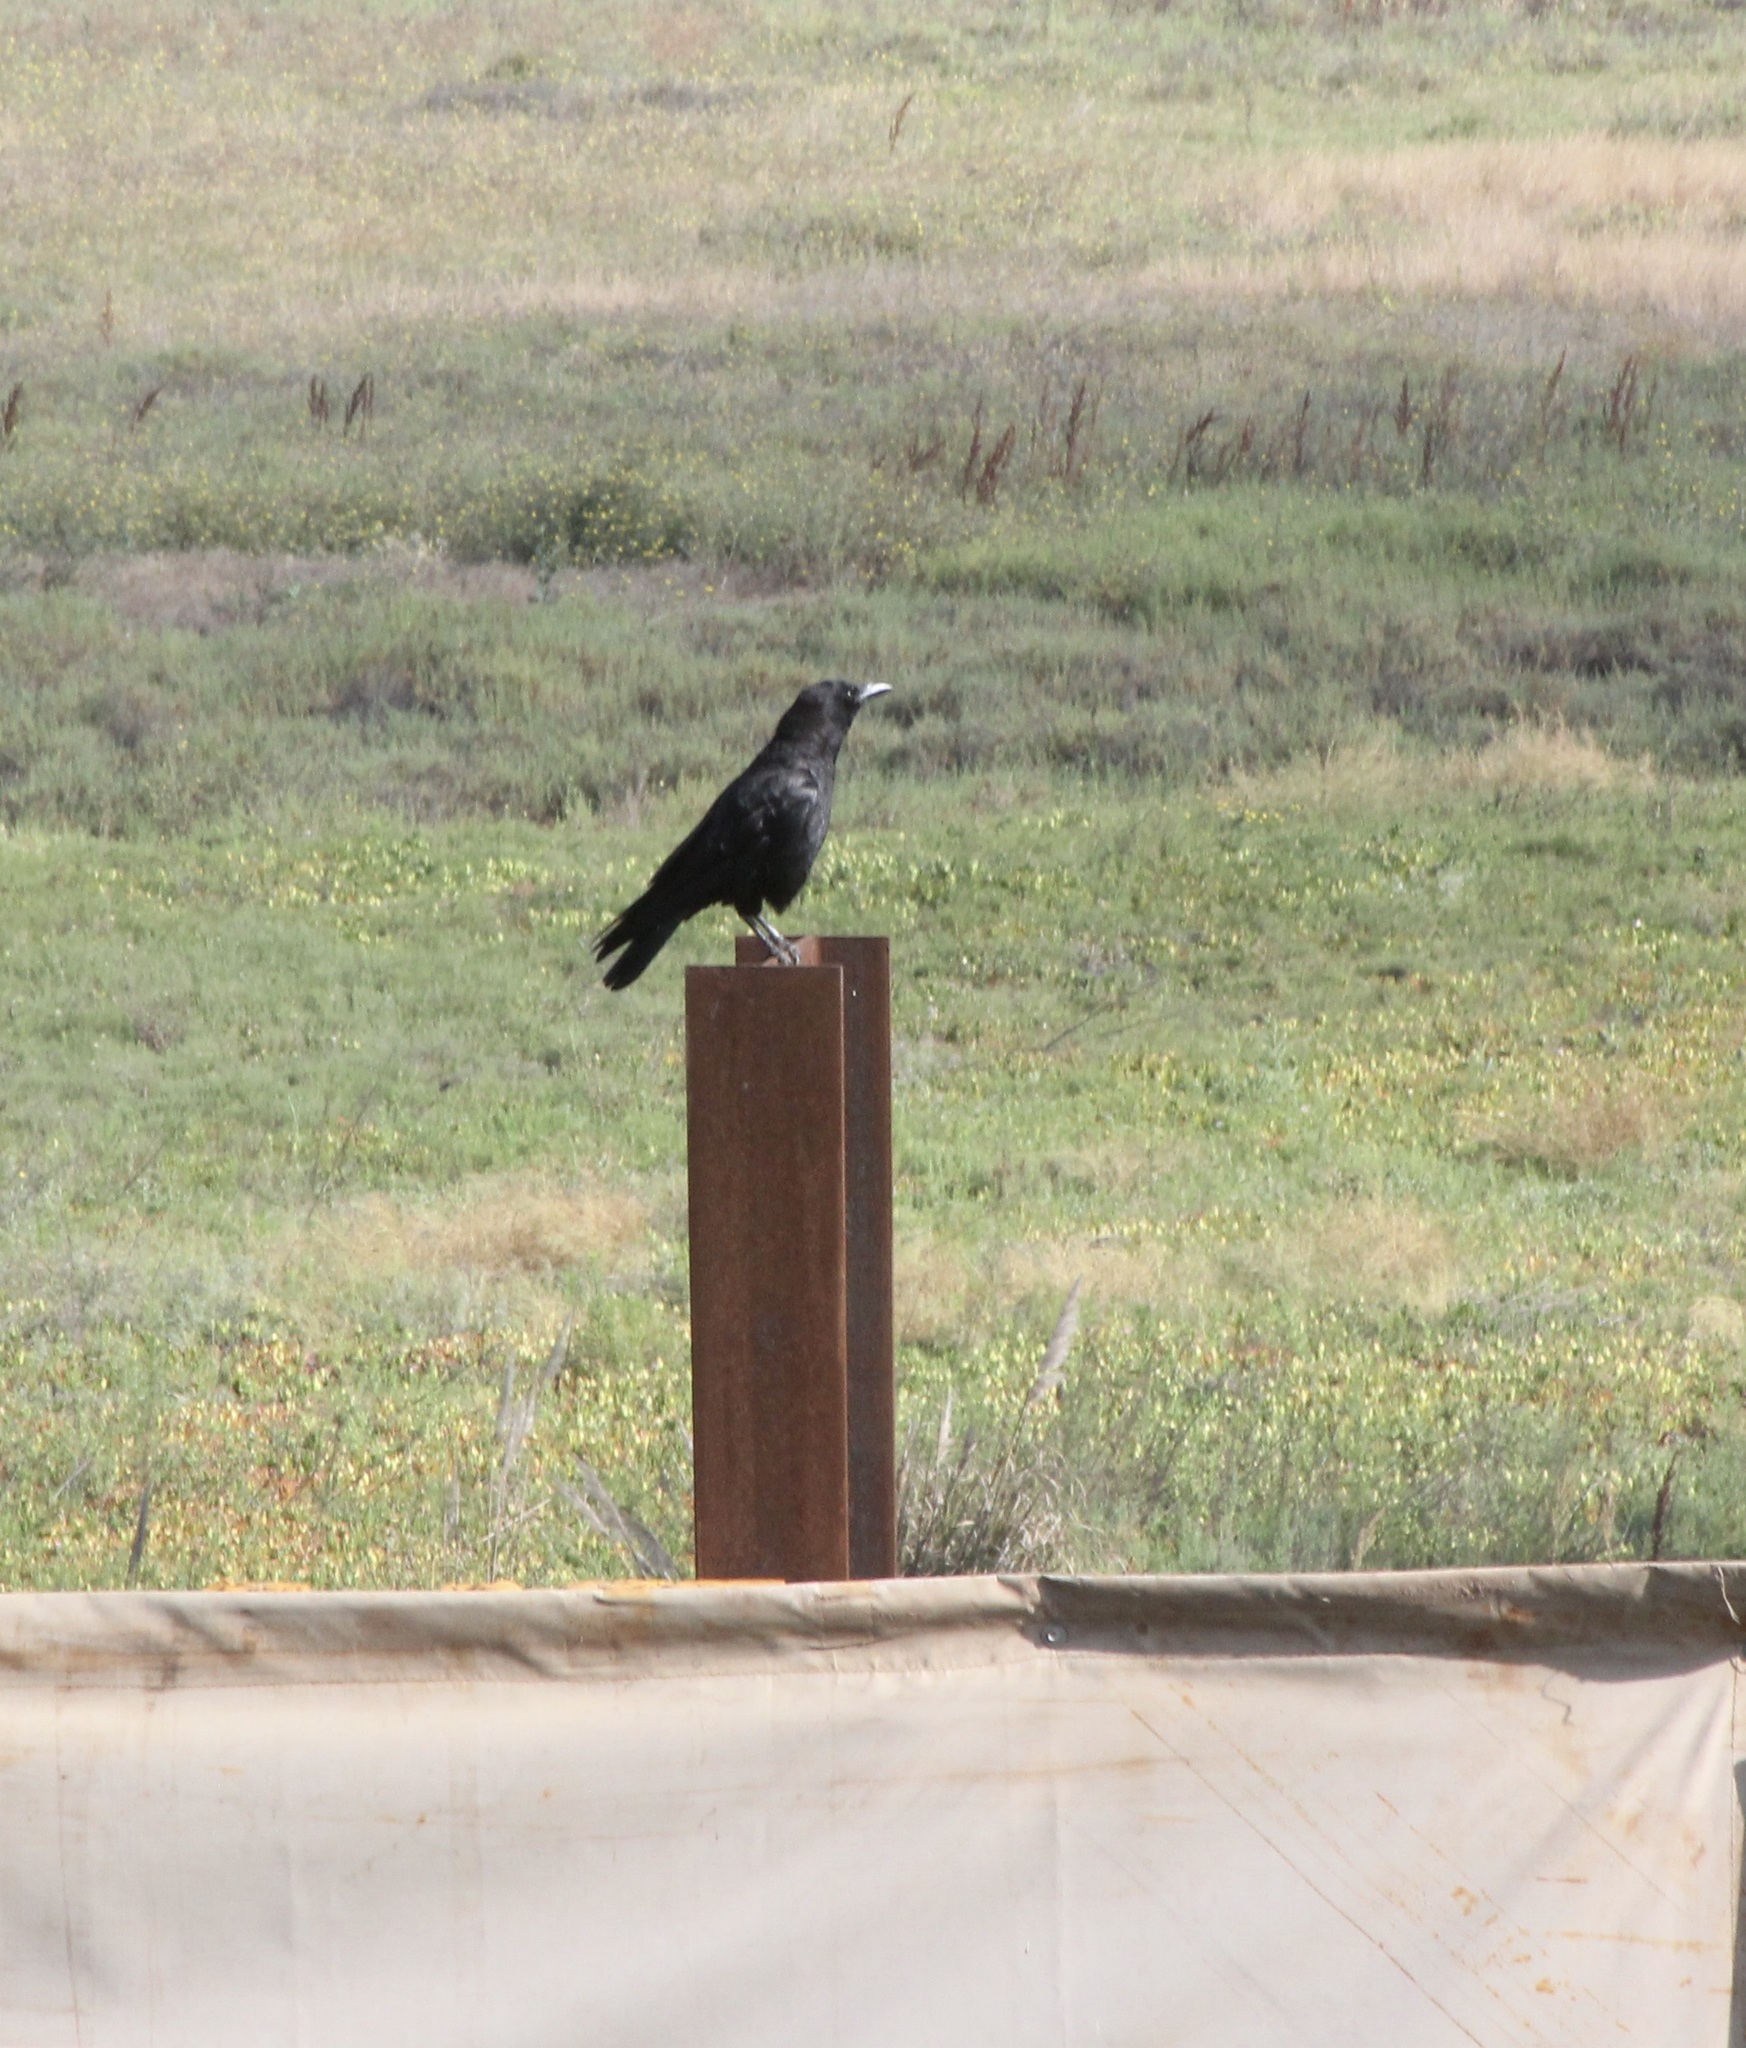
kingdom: Animalia
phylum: Chordata
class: Aves
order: Passeriformes
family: Corvidae
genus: Corvus
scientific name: Corvus brachyrhynchos
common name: American crow
